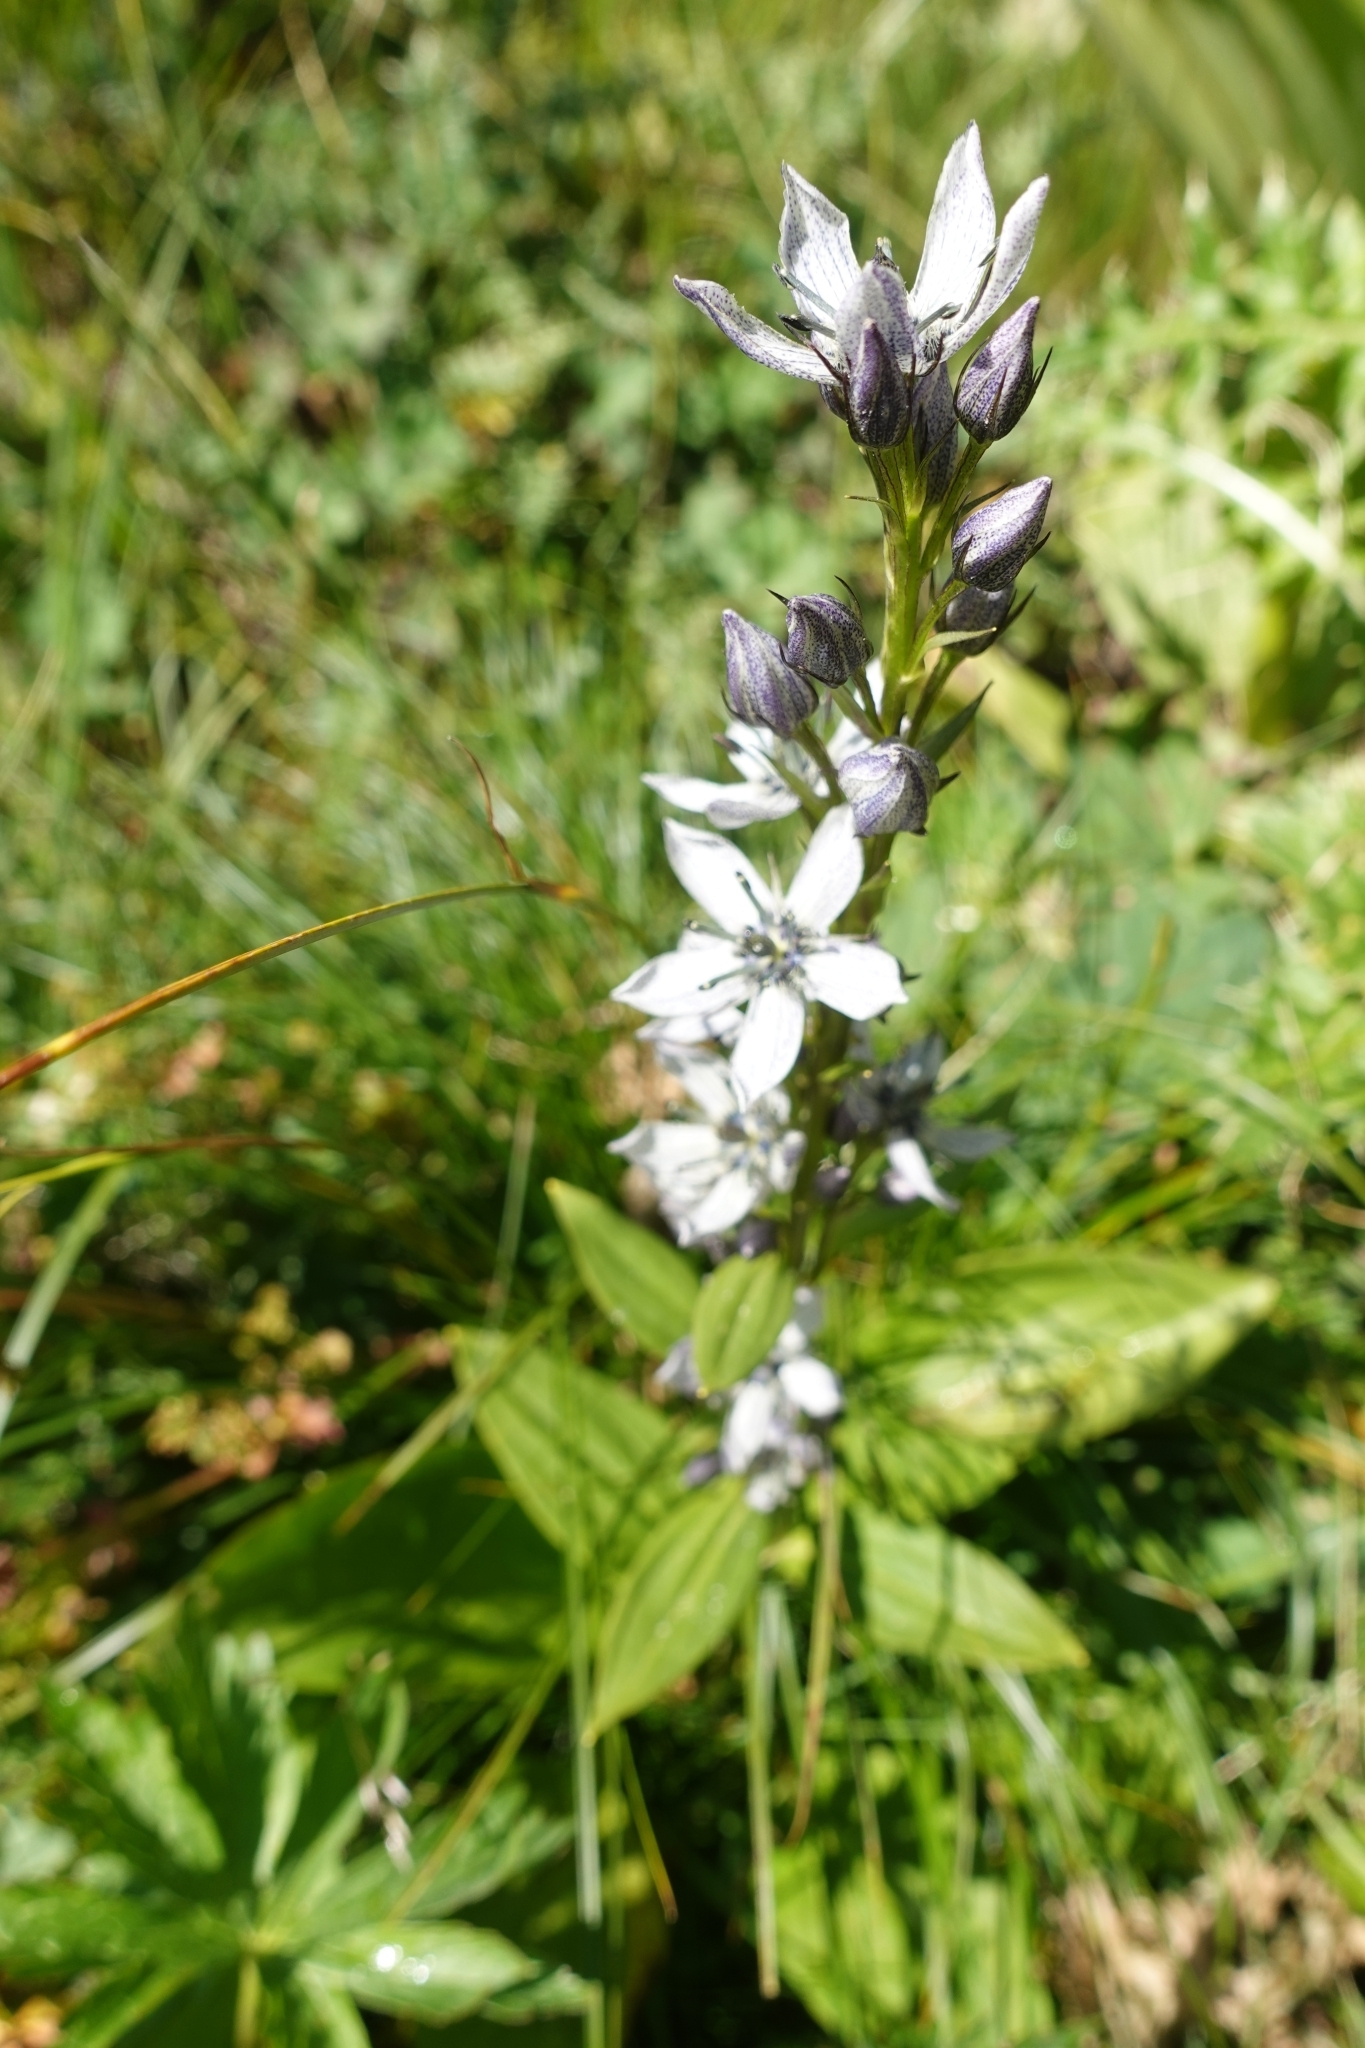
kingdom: Plantae
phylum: Tracheophyta
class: Magnoliopsida
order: Gentianales
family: Gentianaceae
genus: Swertia
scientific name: Swertia iberica
